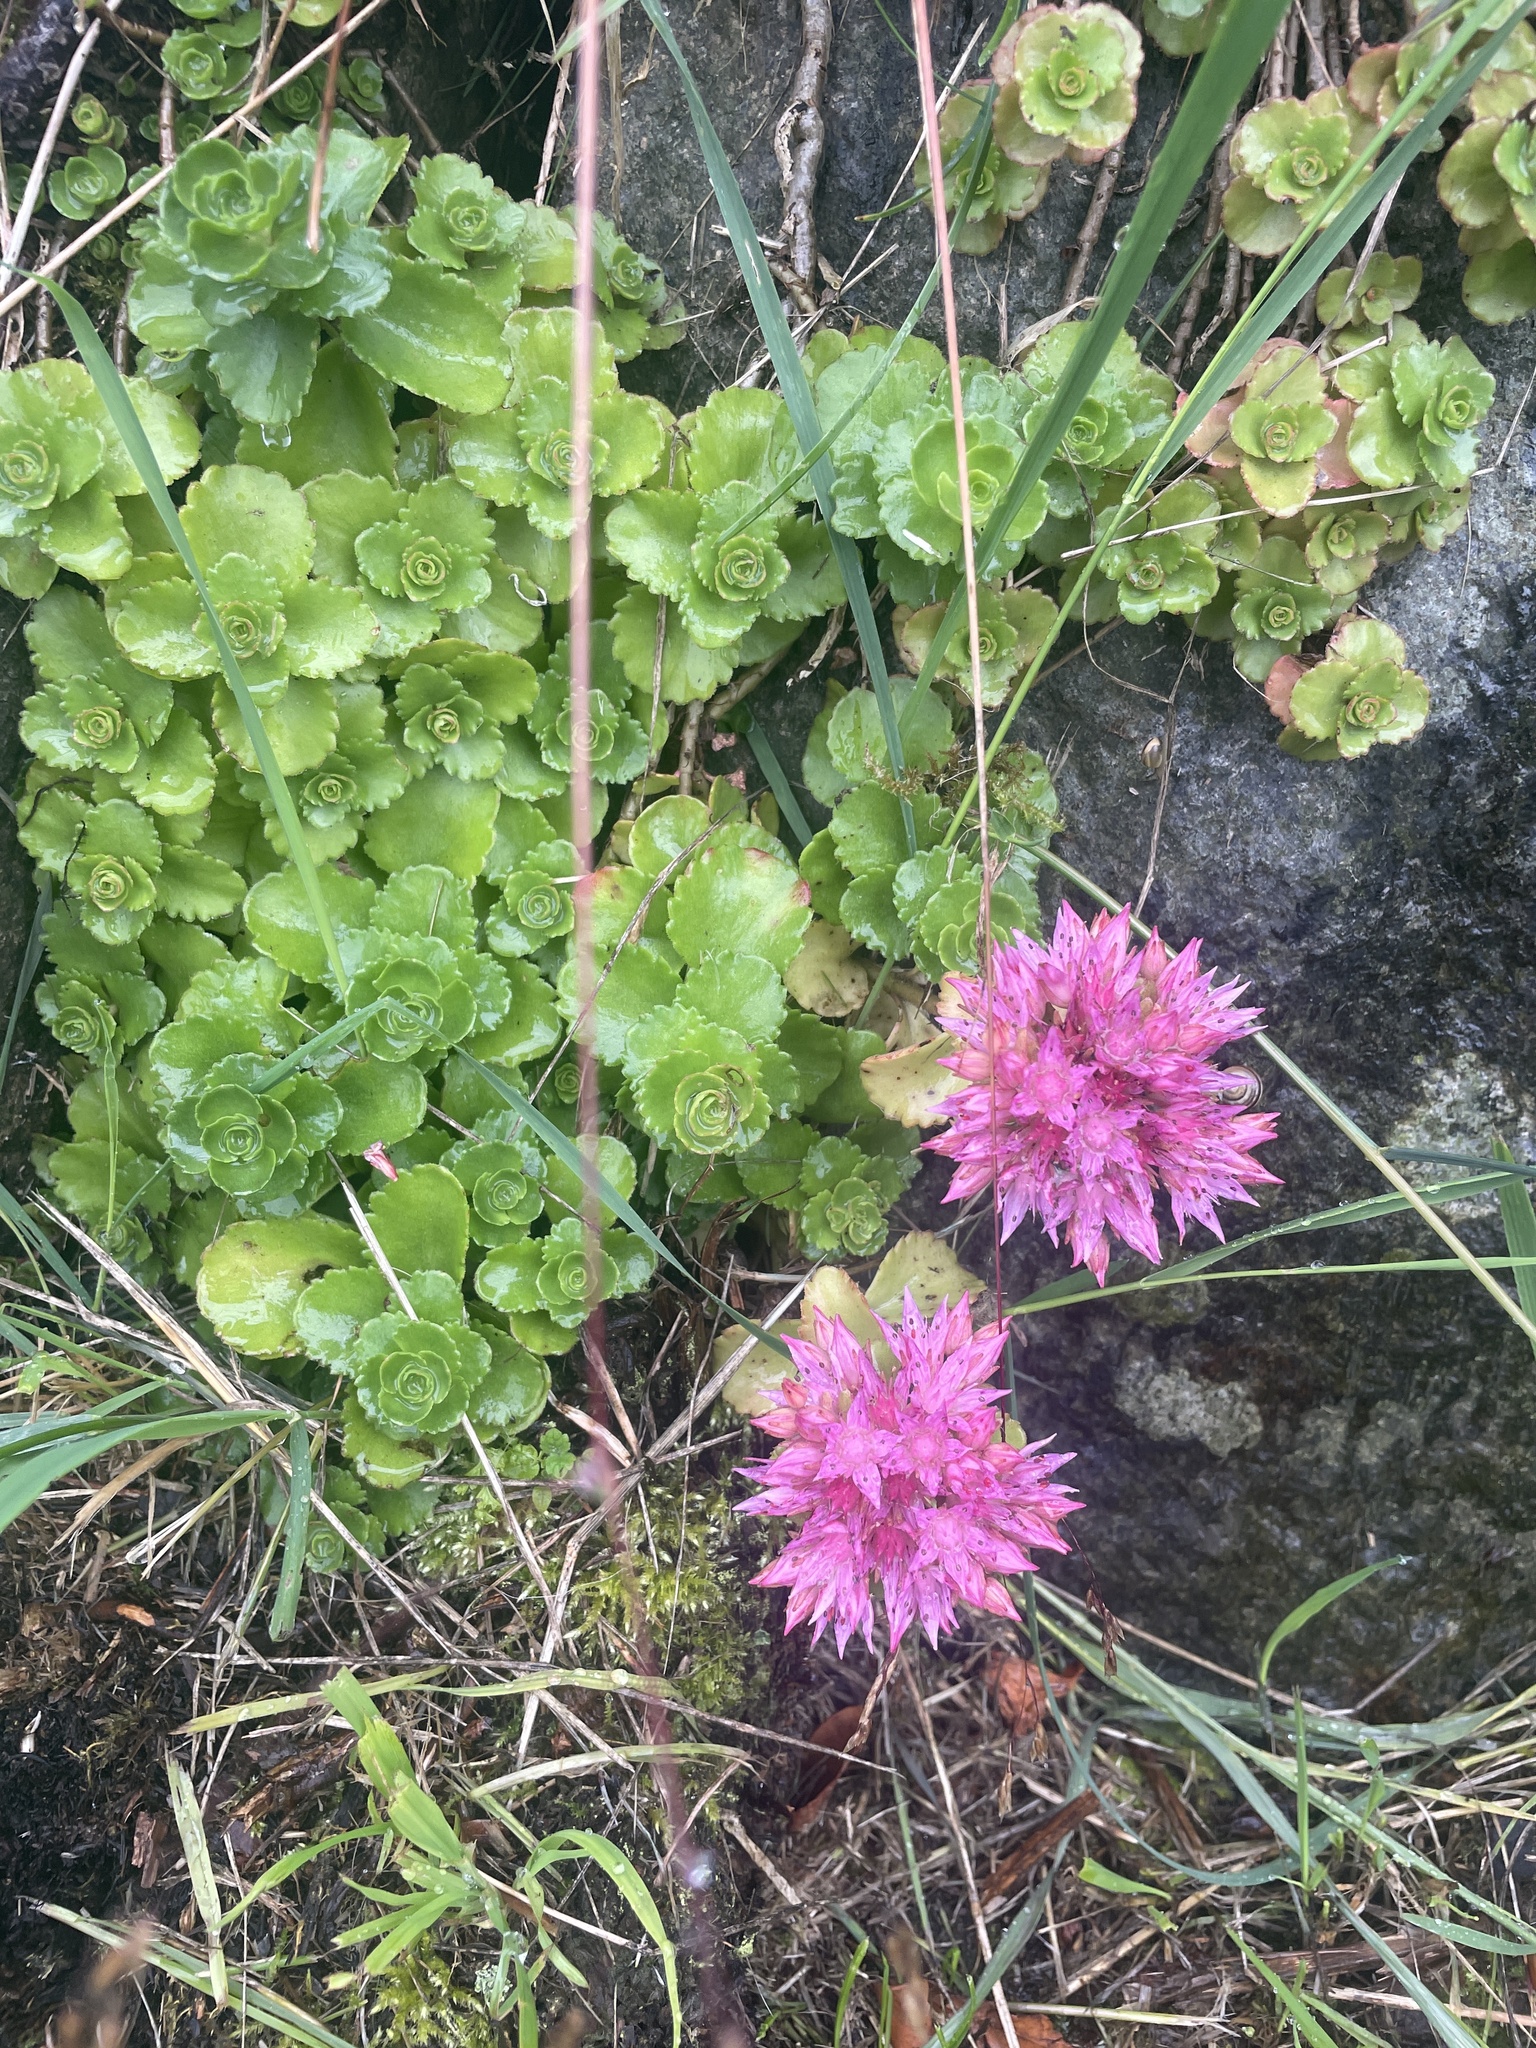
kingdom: Plantae
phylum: Tracheophyta
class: Magnoliopsida
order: Saxifragales
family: Crassulaceae
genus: Phedimus
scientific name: Phedimus spurius
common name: Caucasian stonecrop
